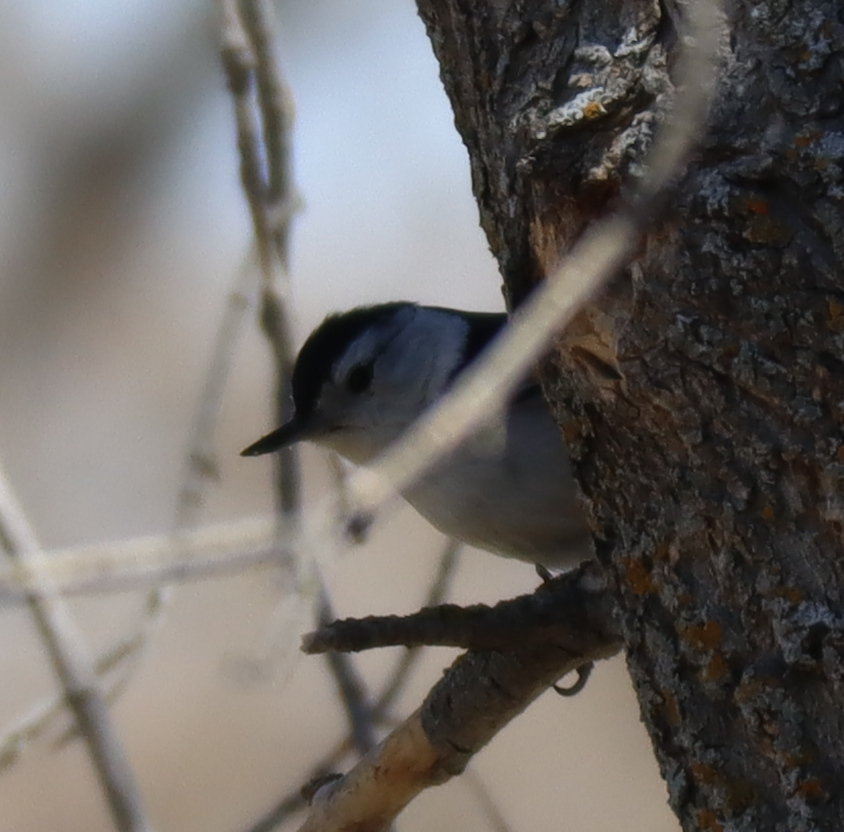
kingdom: Animalia
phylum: Chordata
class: Aves
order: Passeriformes
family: Sittidae
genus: Sitta
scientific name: Sitta carolinensis
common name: White-breasted nuthatch
